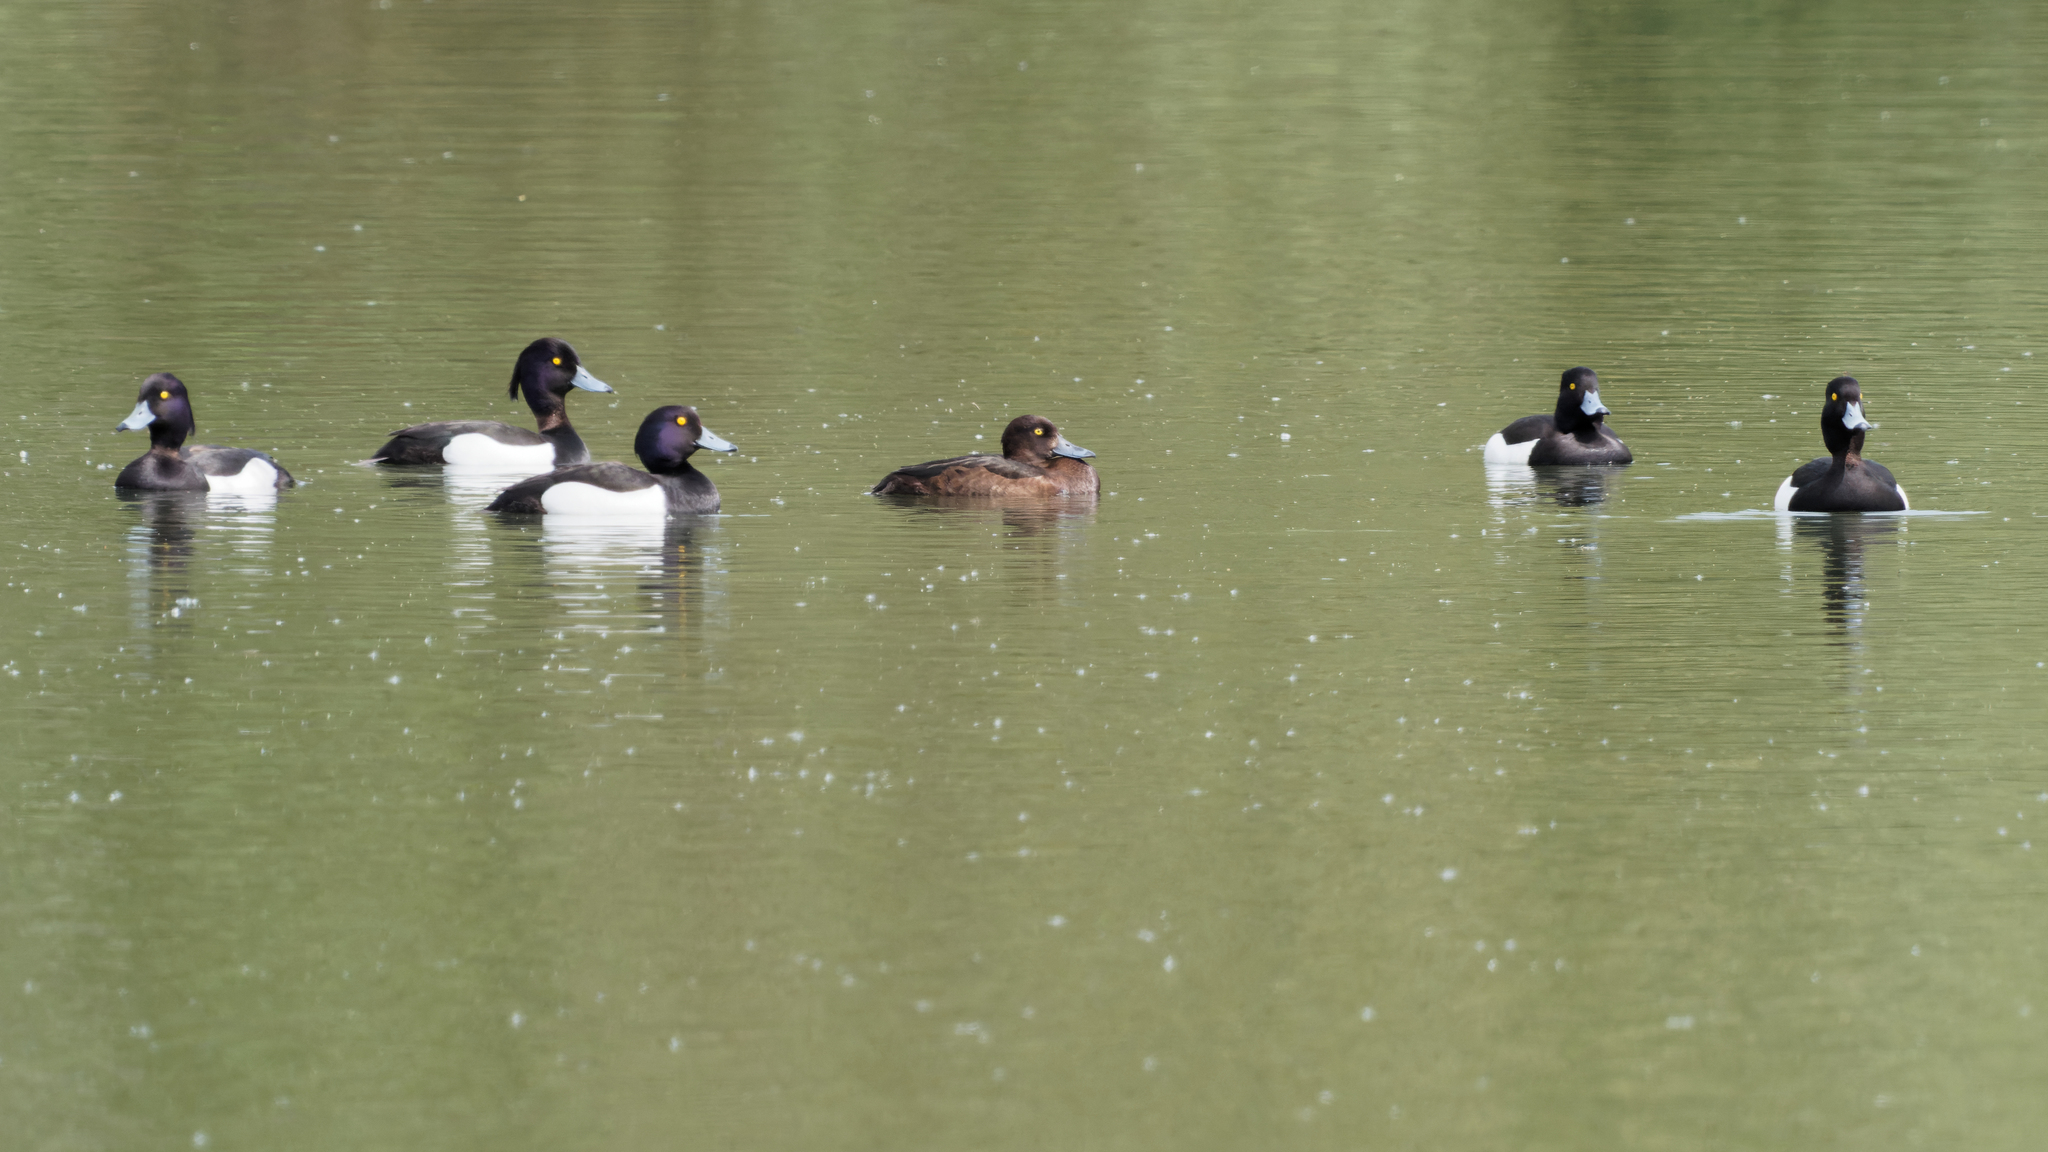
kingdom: Animalia
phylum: Chordata
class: Aves
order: Anseriformes
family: Anatidae
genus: Aythya
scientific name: Aythya fuligula
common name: Tufted duck
